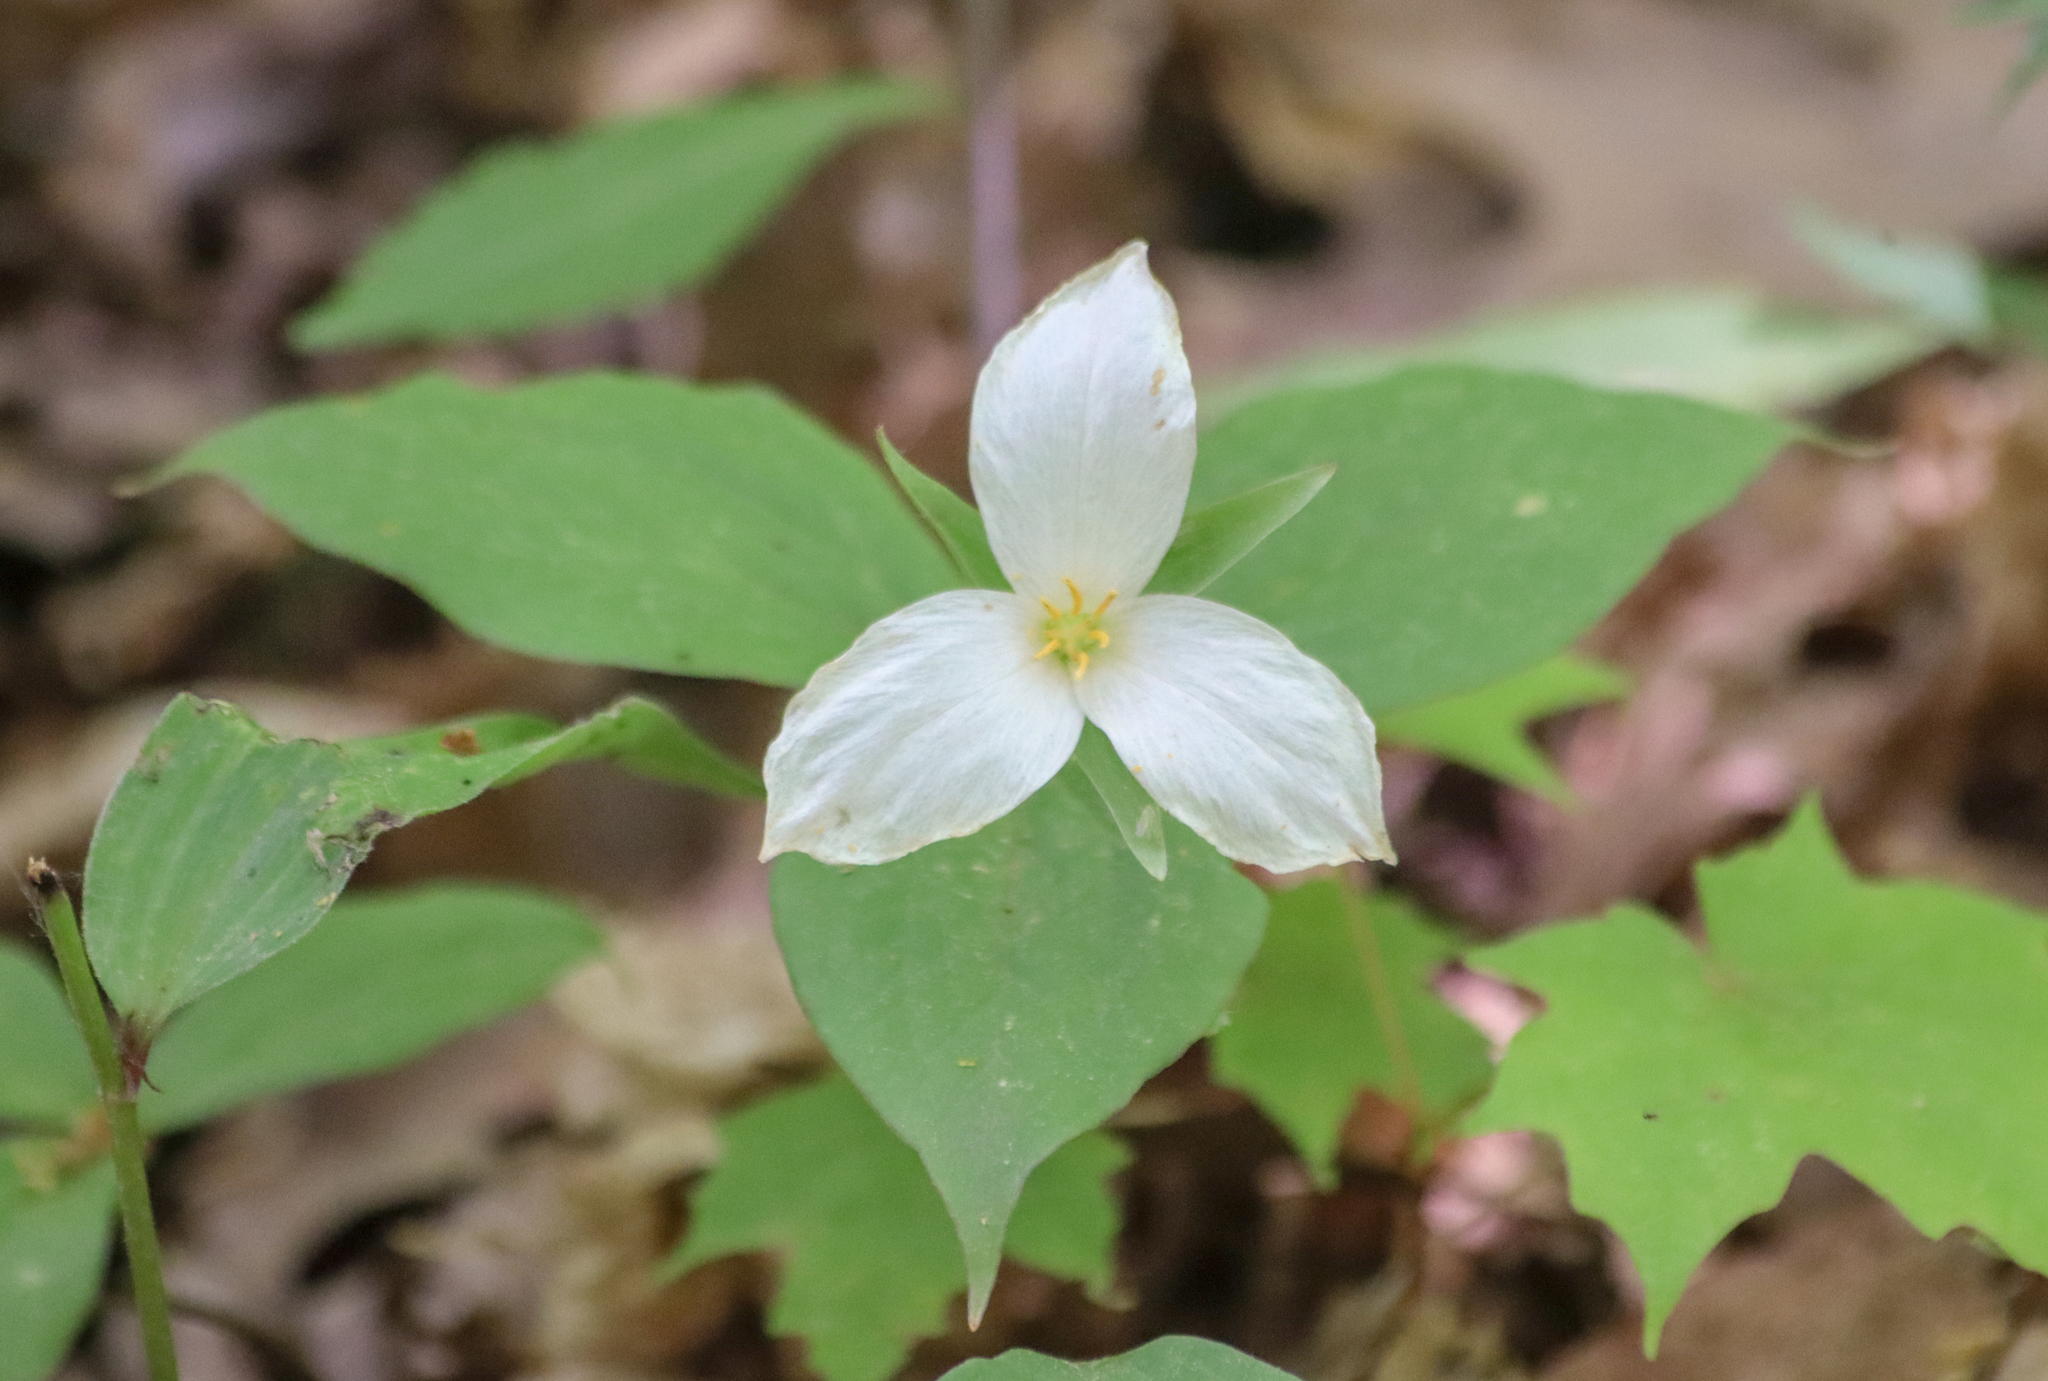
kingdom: Plantae
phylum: Tracheophyta
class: Liliopsida
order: Liliales
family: Melanthiaceae
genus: Trillium
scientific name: Trillium grandiflorum
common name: Great white trillium
